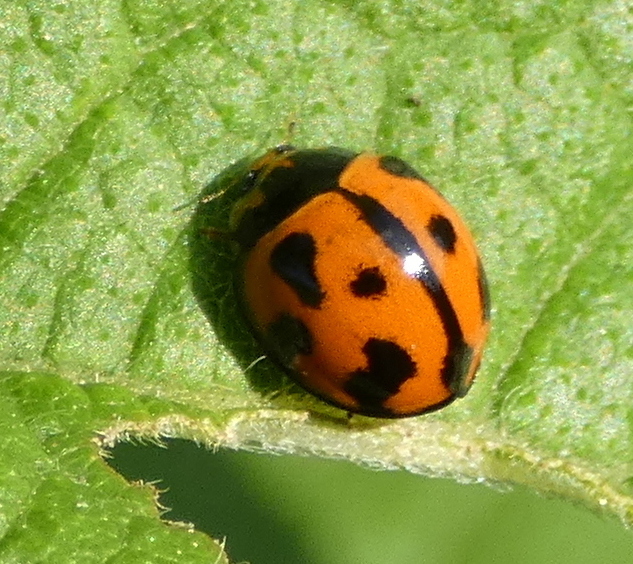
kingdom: Animalia
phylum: Arthropoda
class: Insecta
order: Coleoptera
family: Coccinellidae
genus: Coelophora
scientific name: Coelophora inaequalis
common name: Common australian lady beetle
